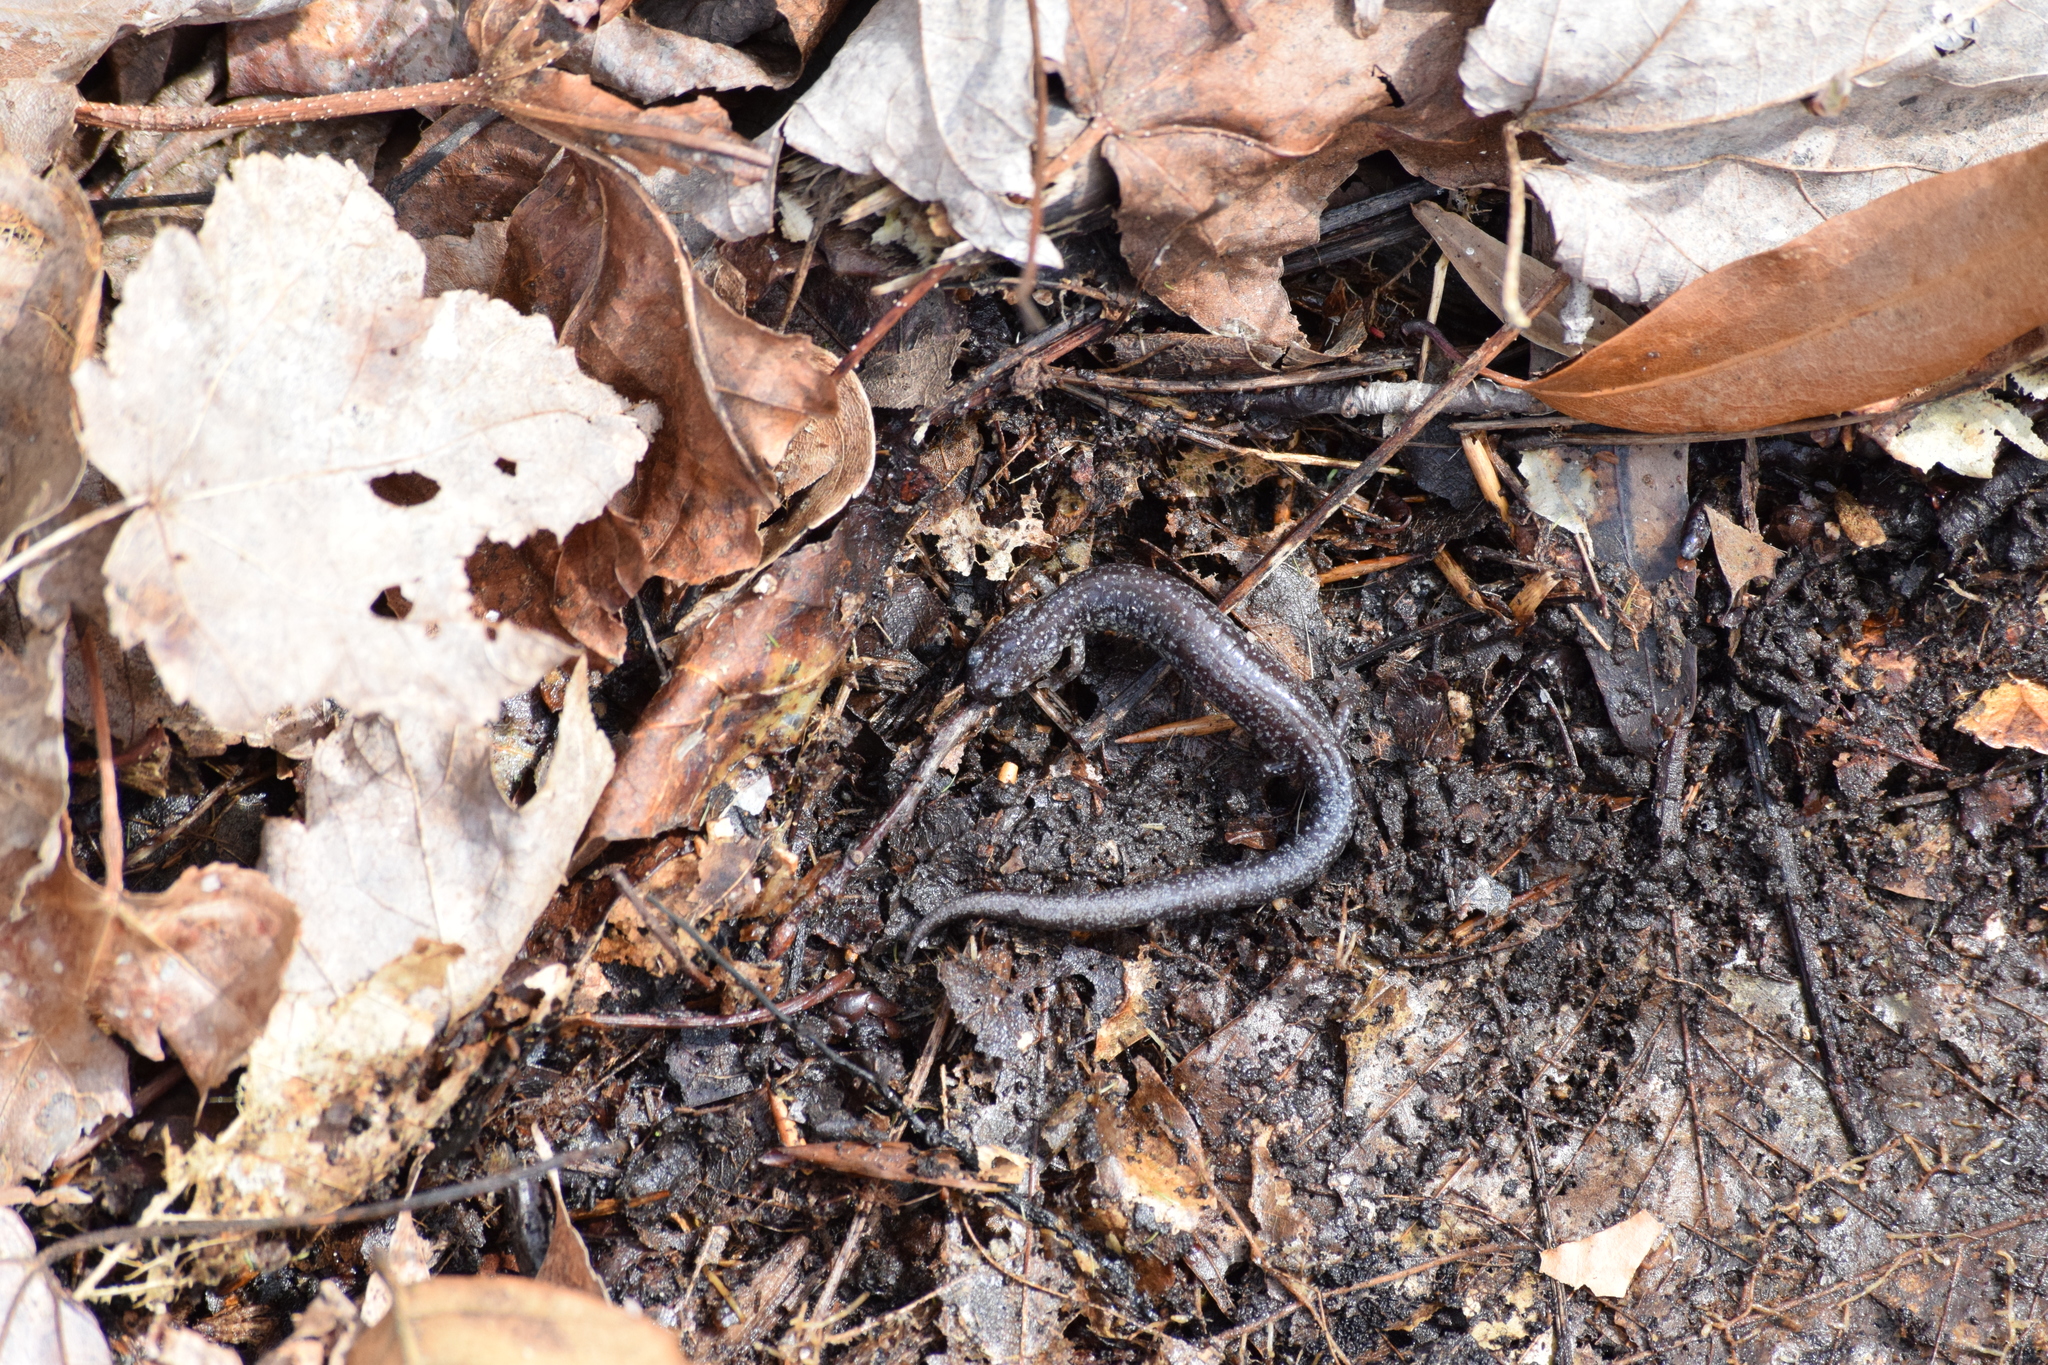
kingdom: Animalia
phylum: Chordata
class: Amphibia
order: Caudata
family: Plethodontidae
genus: Plethodon
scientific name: Plethodon cinereus
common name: Redback salamander
